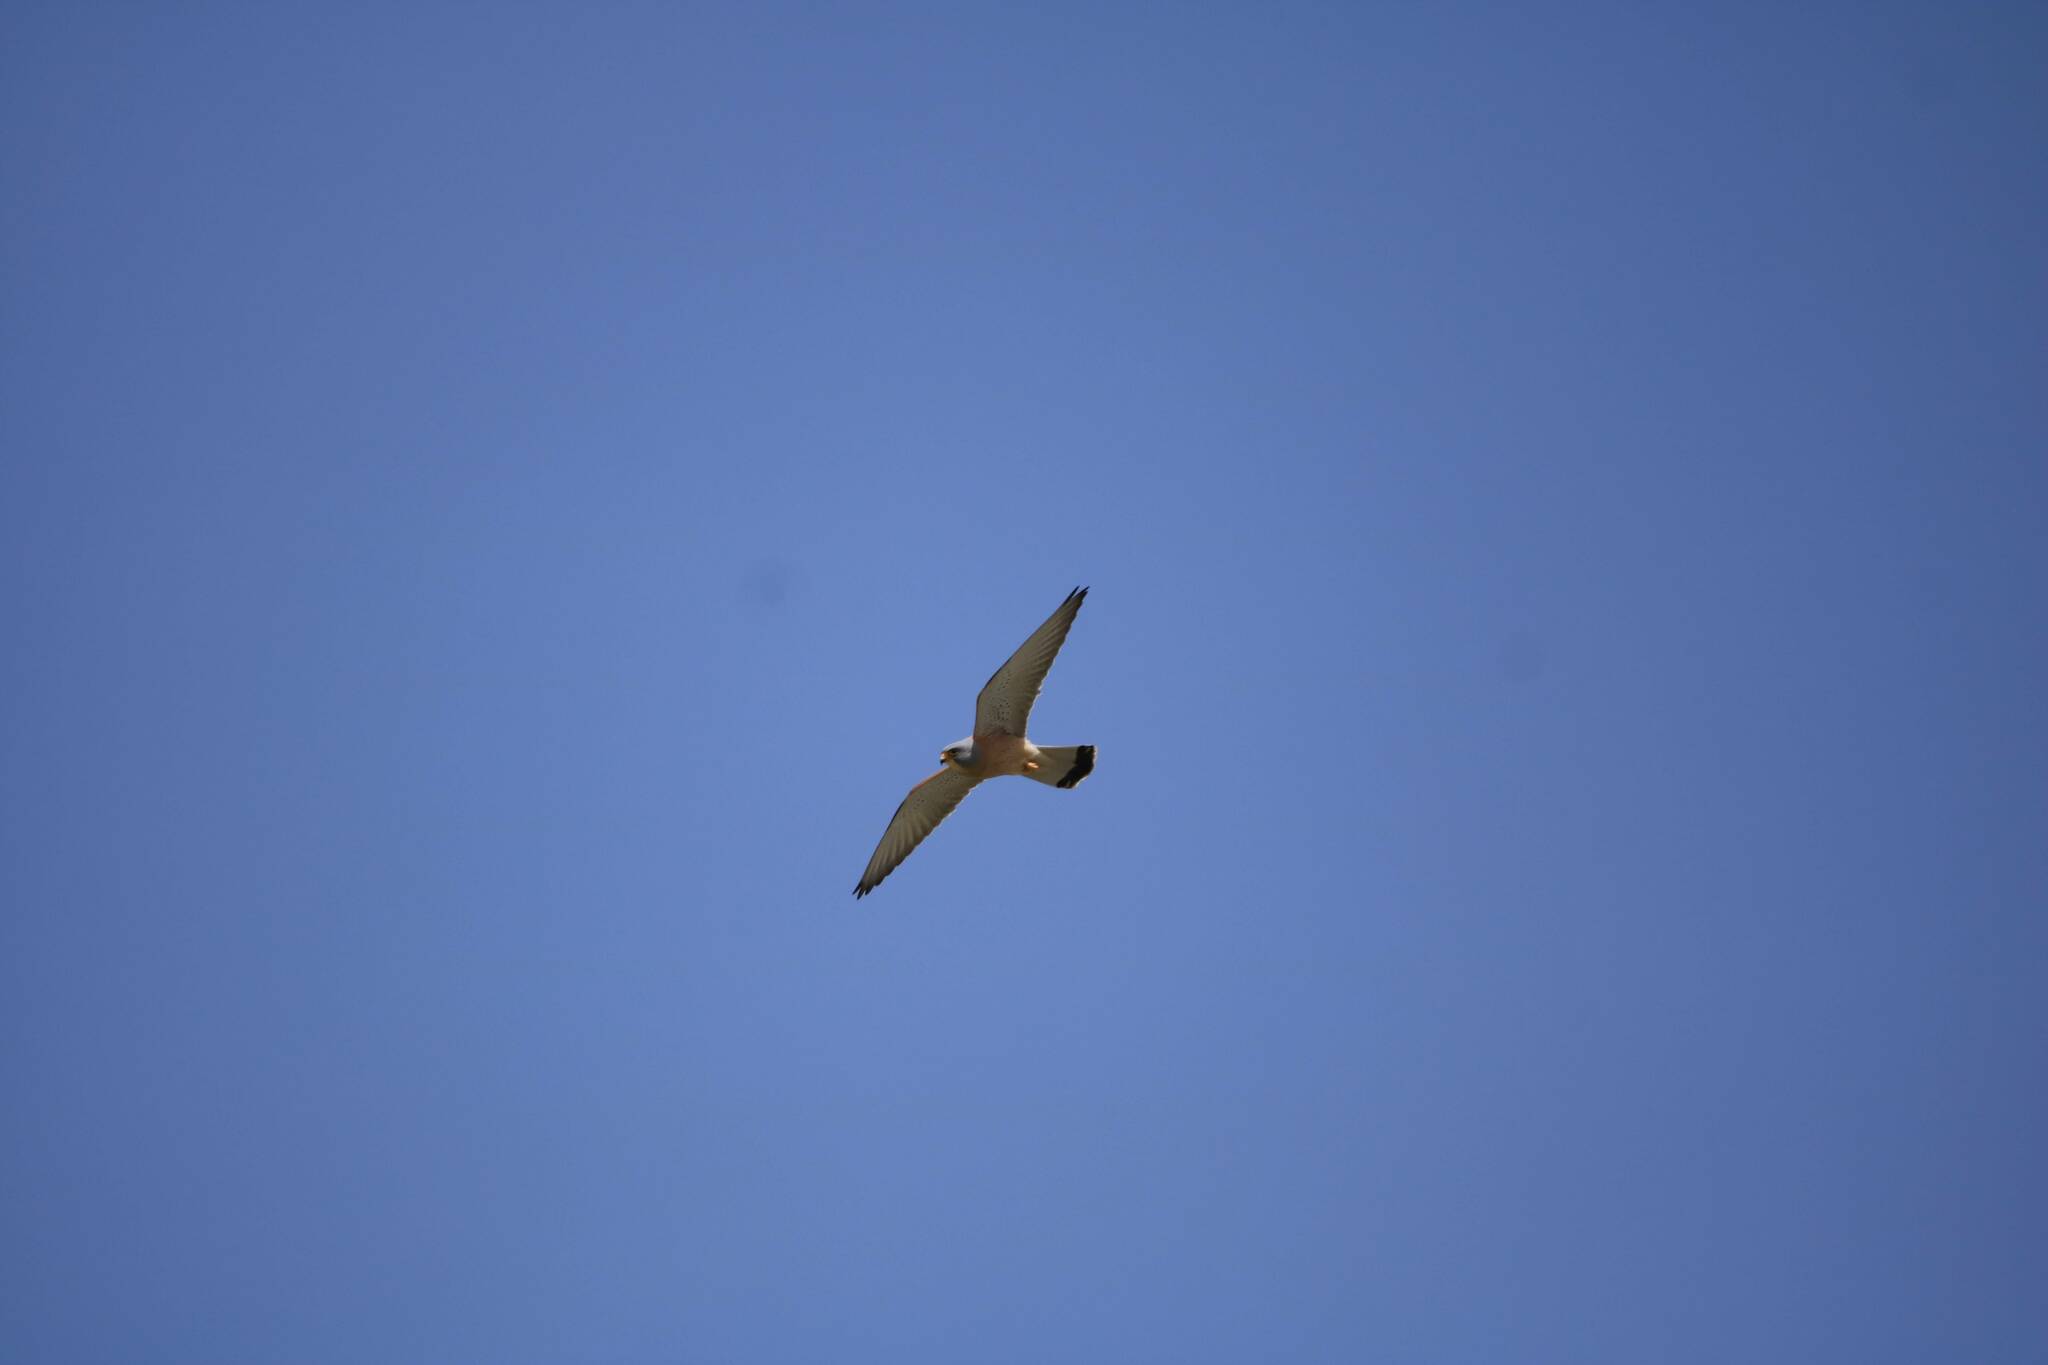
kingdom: Animalia
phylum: Chordata
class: Aves
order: Falconiformes
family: Falconidae
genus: Falco
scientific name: Falco tinnunculus
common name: Common kestrel
